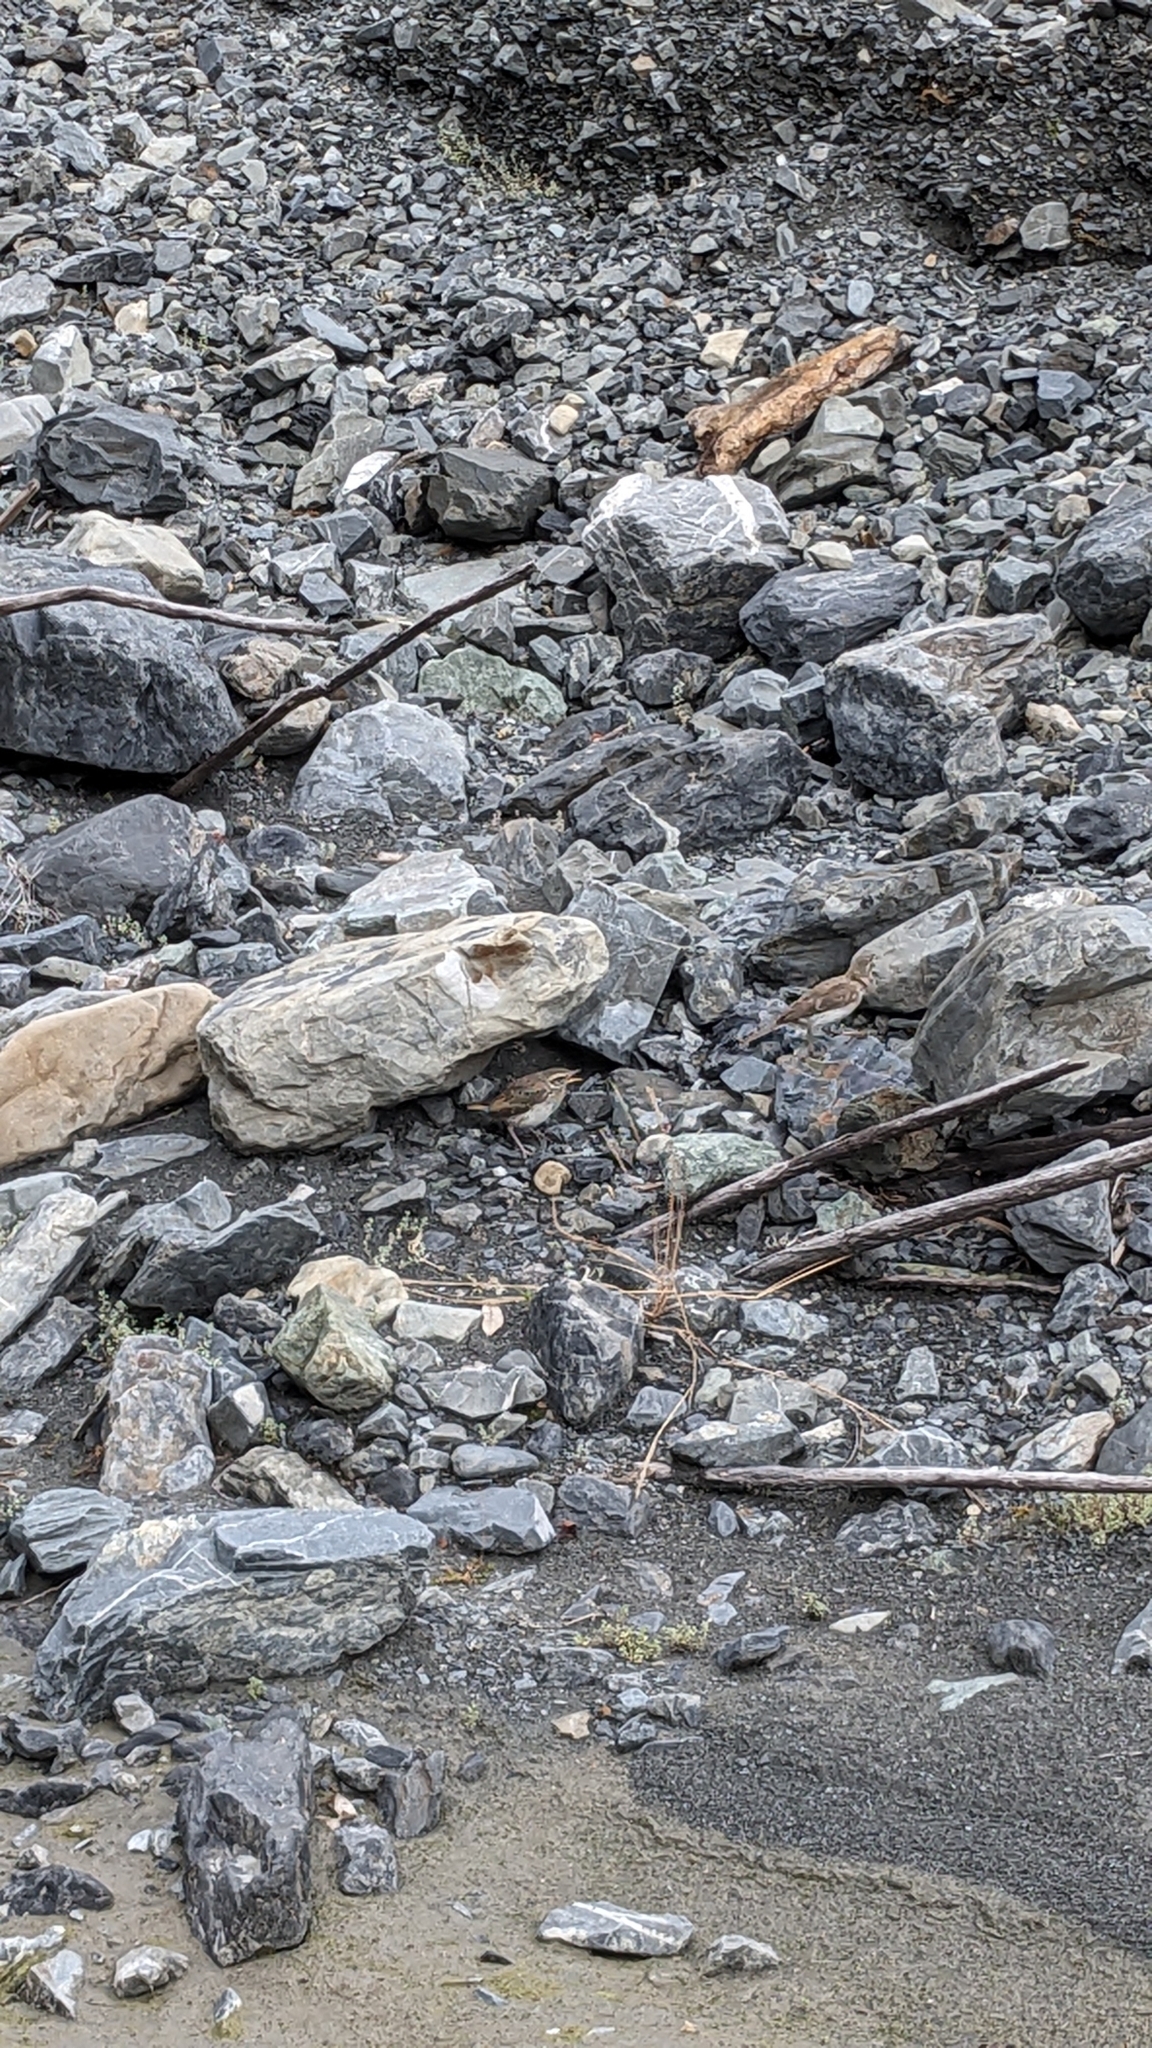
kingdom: Animalia
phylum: Chordata
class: Aves
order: Passeriformes
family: Motacillidae
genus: Anthus
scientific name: Anthus novaeseelandiae
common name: New zealand pipit
